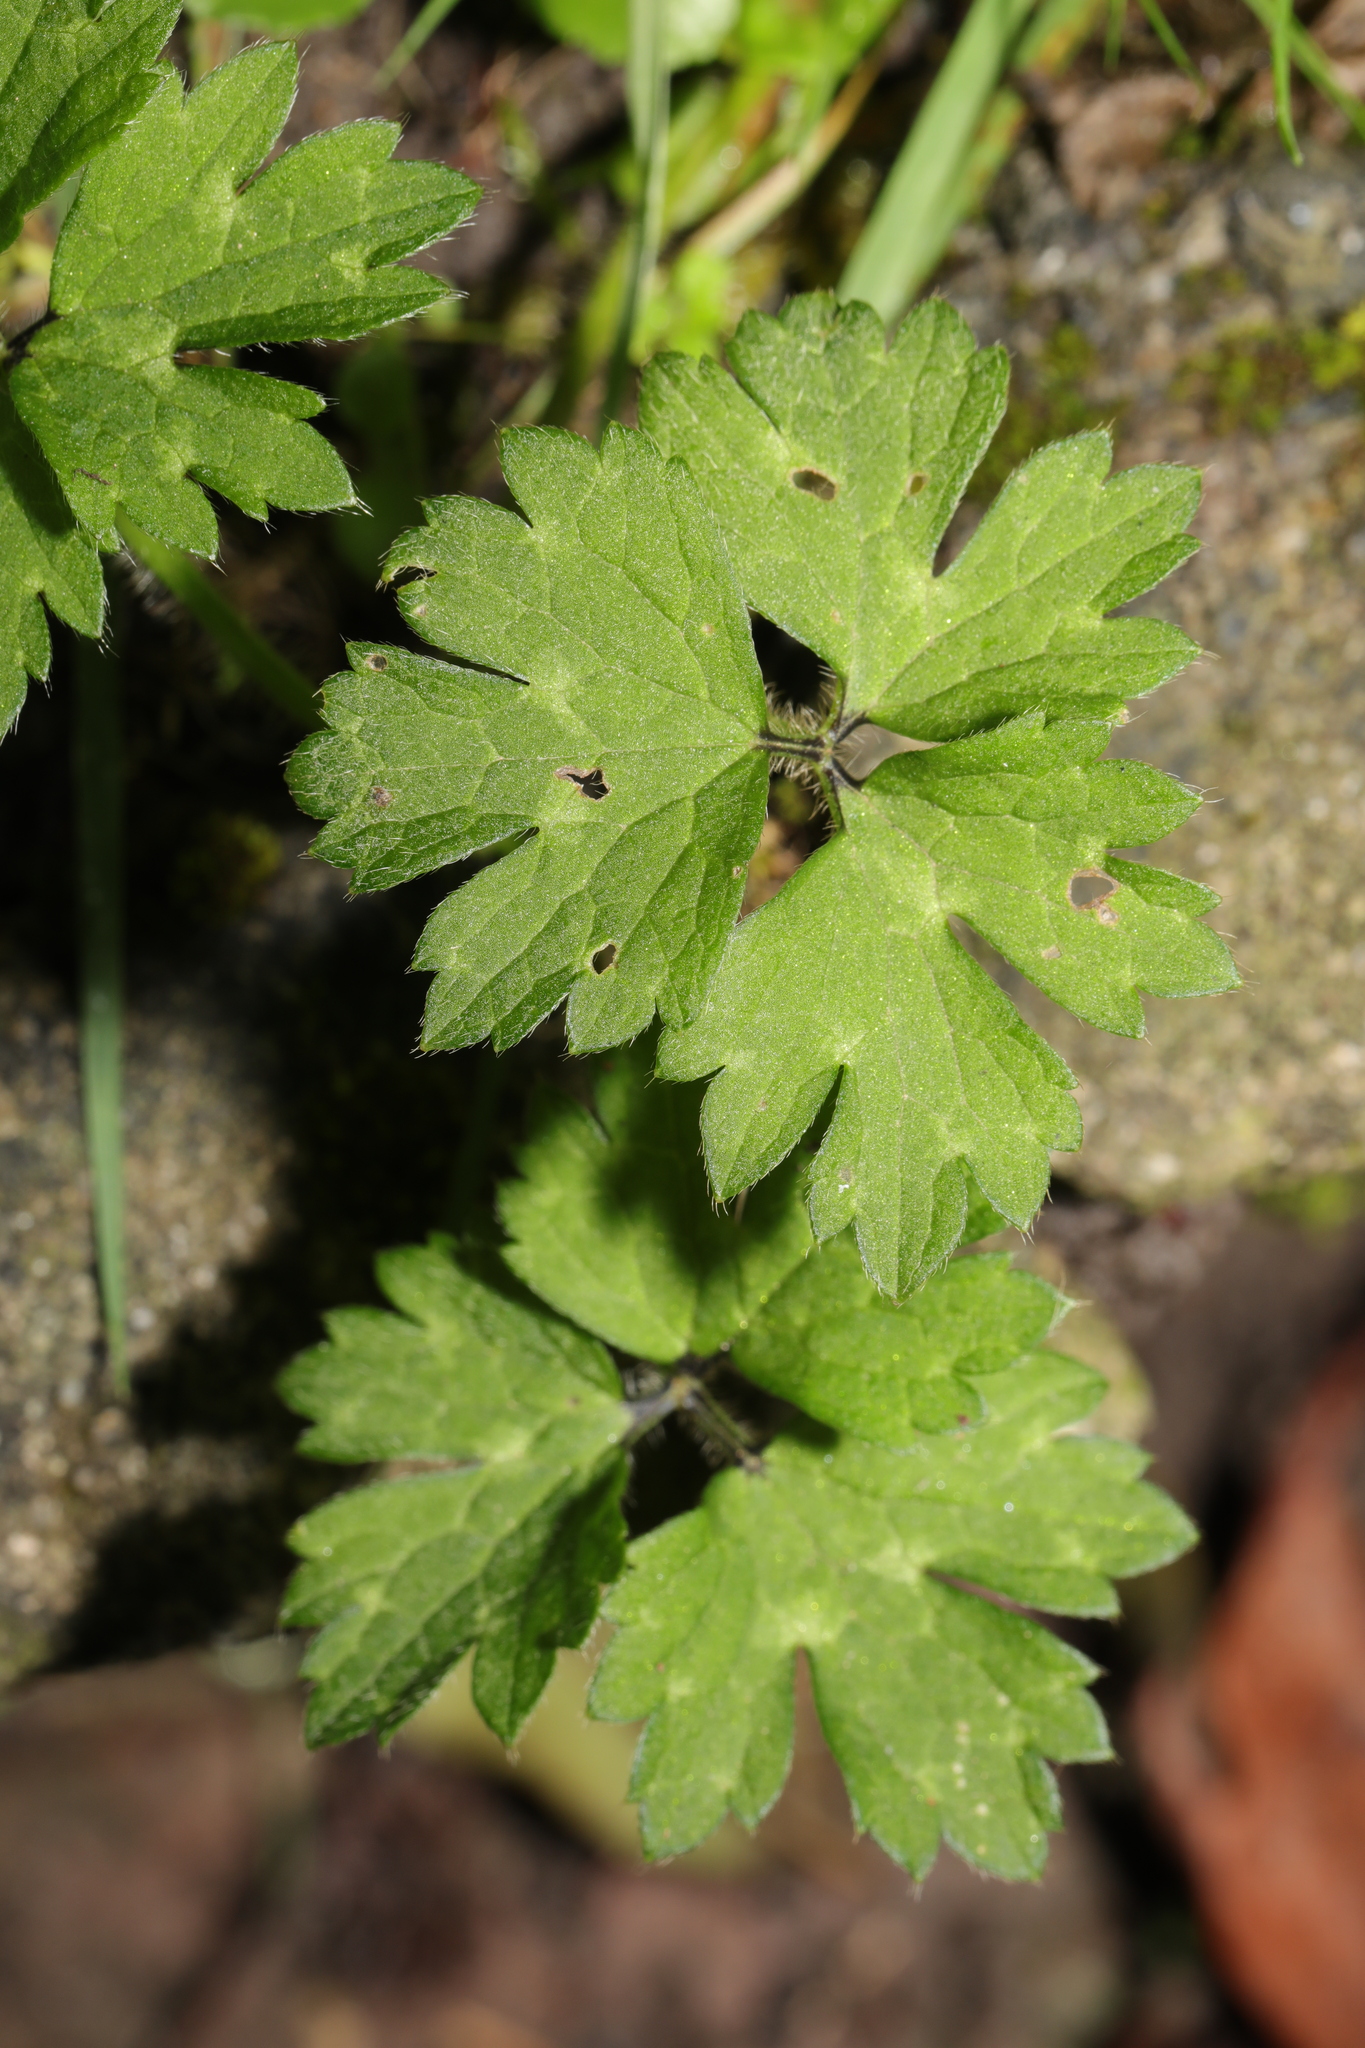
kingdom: Plantae
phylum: Tracheophyta
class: Magnoliopsida
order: Ranunculales
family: Ranunculaceae
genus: Ranunculus
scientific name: Ranunculus repens
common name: Creeping buttercup
